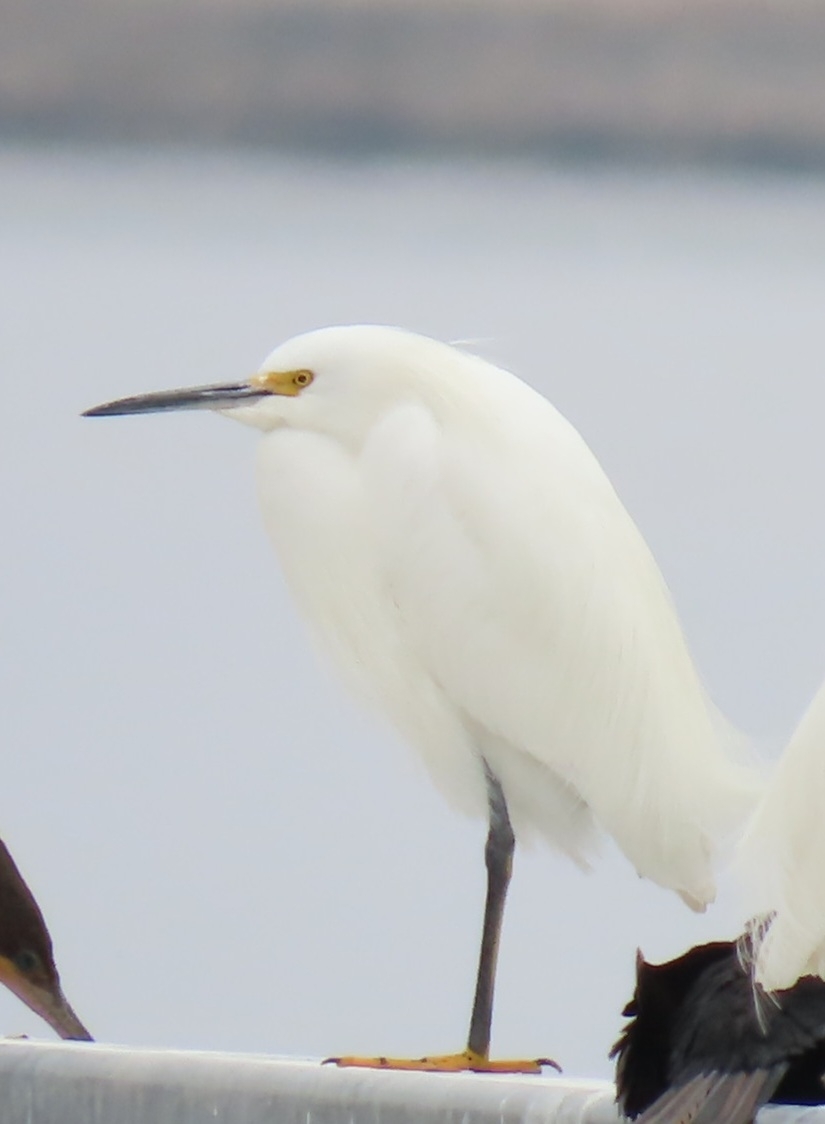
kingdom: Animalia
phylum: Chordata
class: Aves
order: Pelecaniformes
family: Ardeidae
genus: Egretta
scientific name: Egretta thula
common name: Snowy egret
